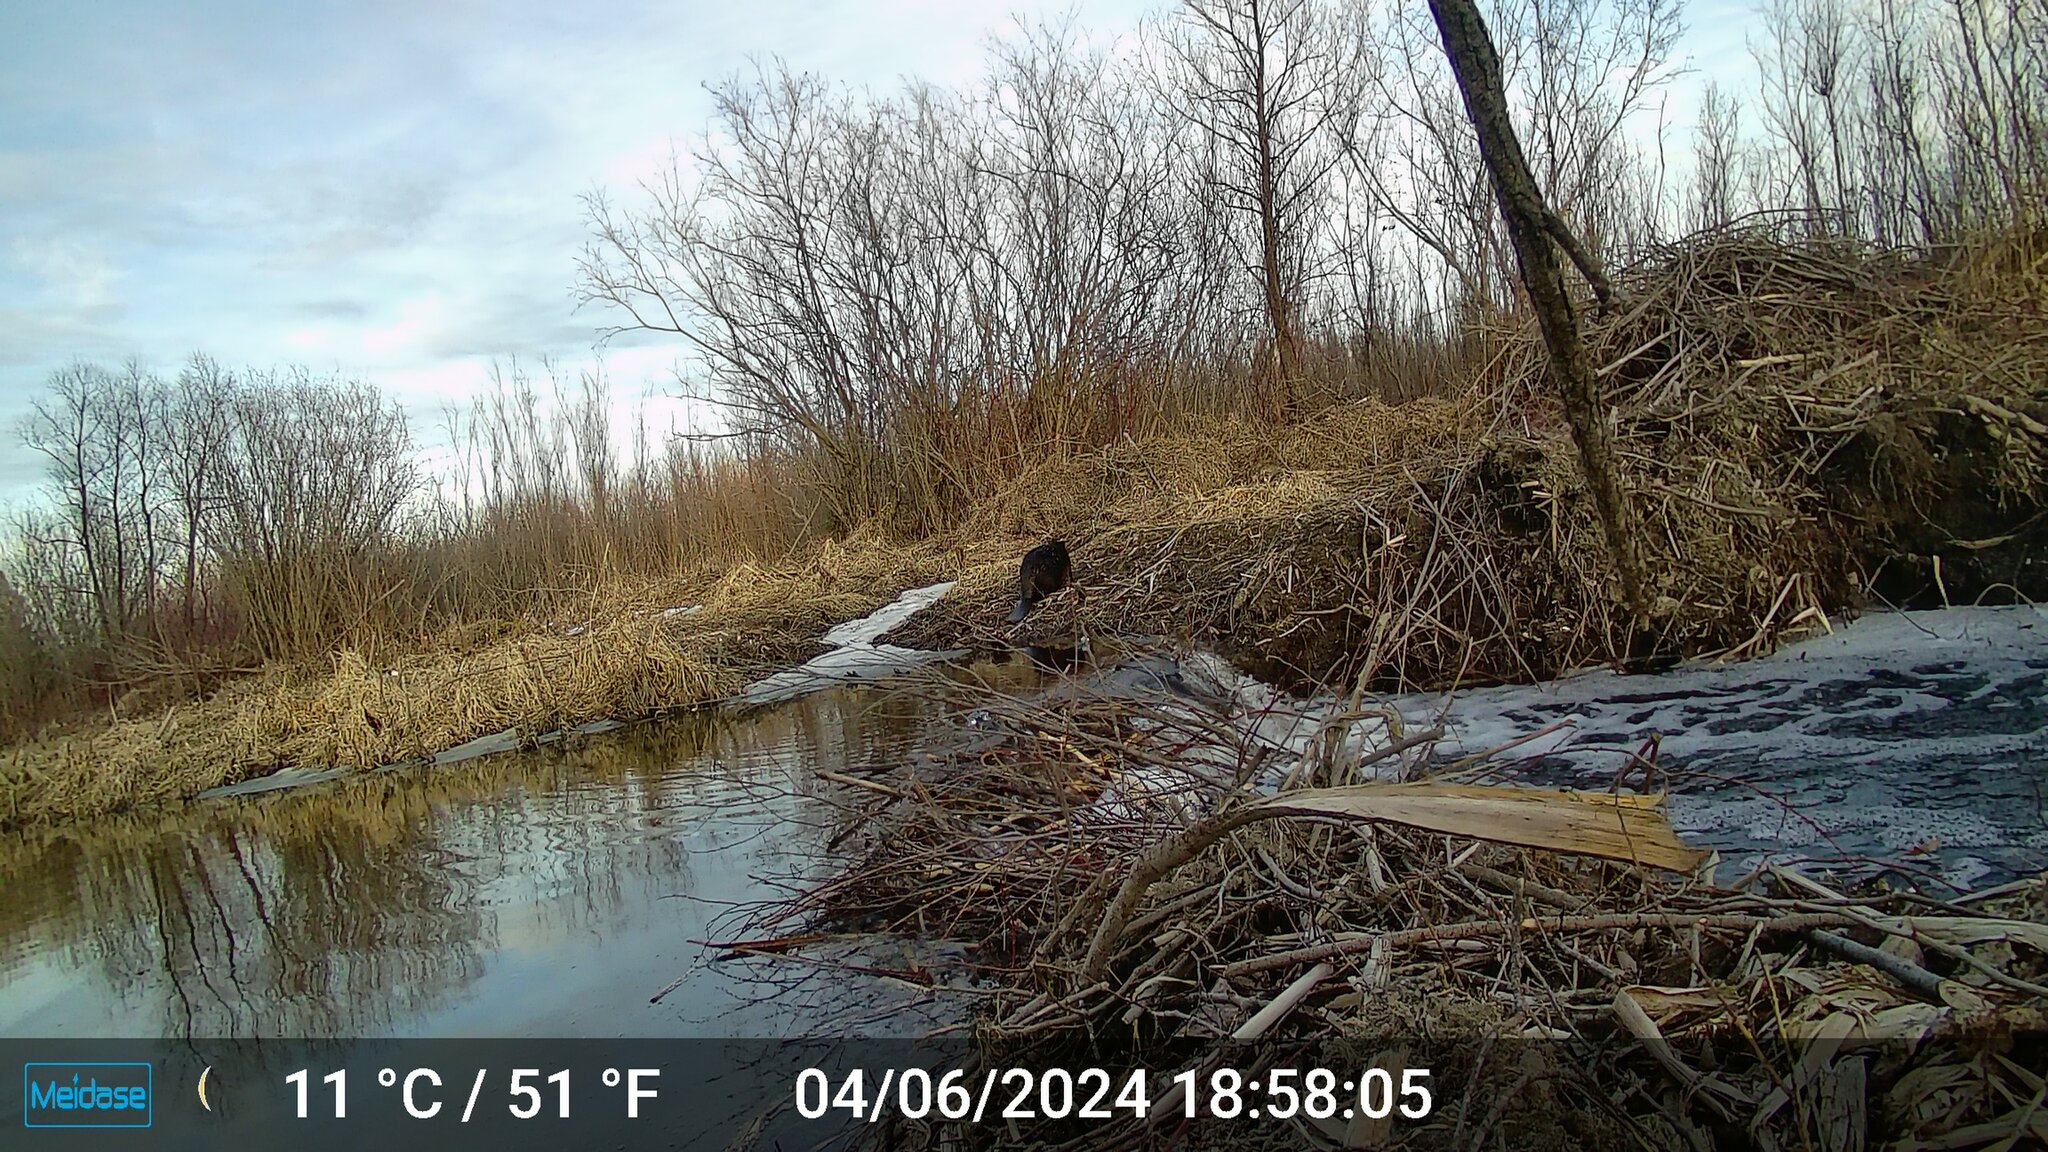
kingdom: Animalia
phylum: Chordata
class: Mammalia
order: Rodentia
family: Castoridae
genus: Castor
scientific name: Castor canadensis
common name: American beaver
